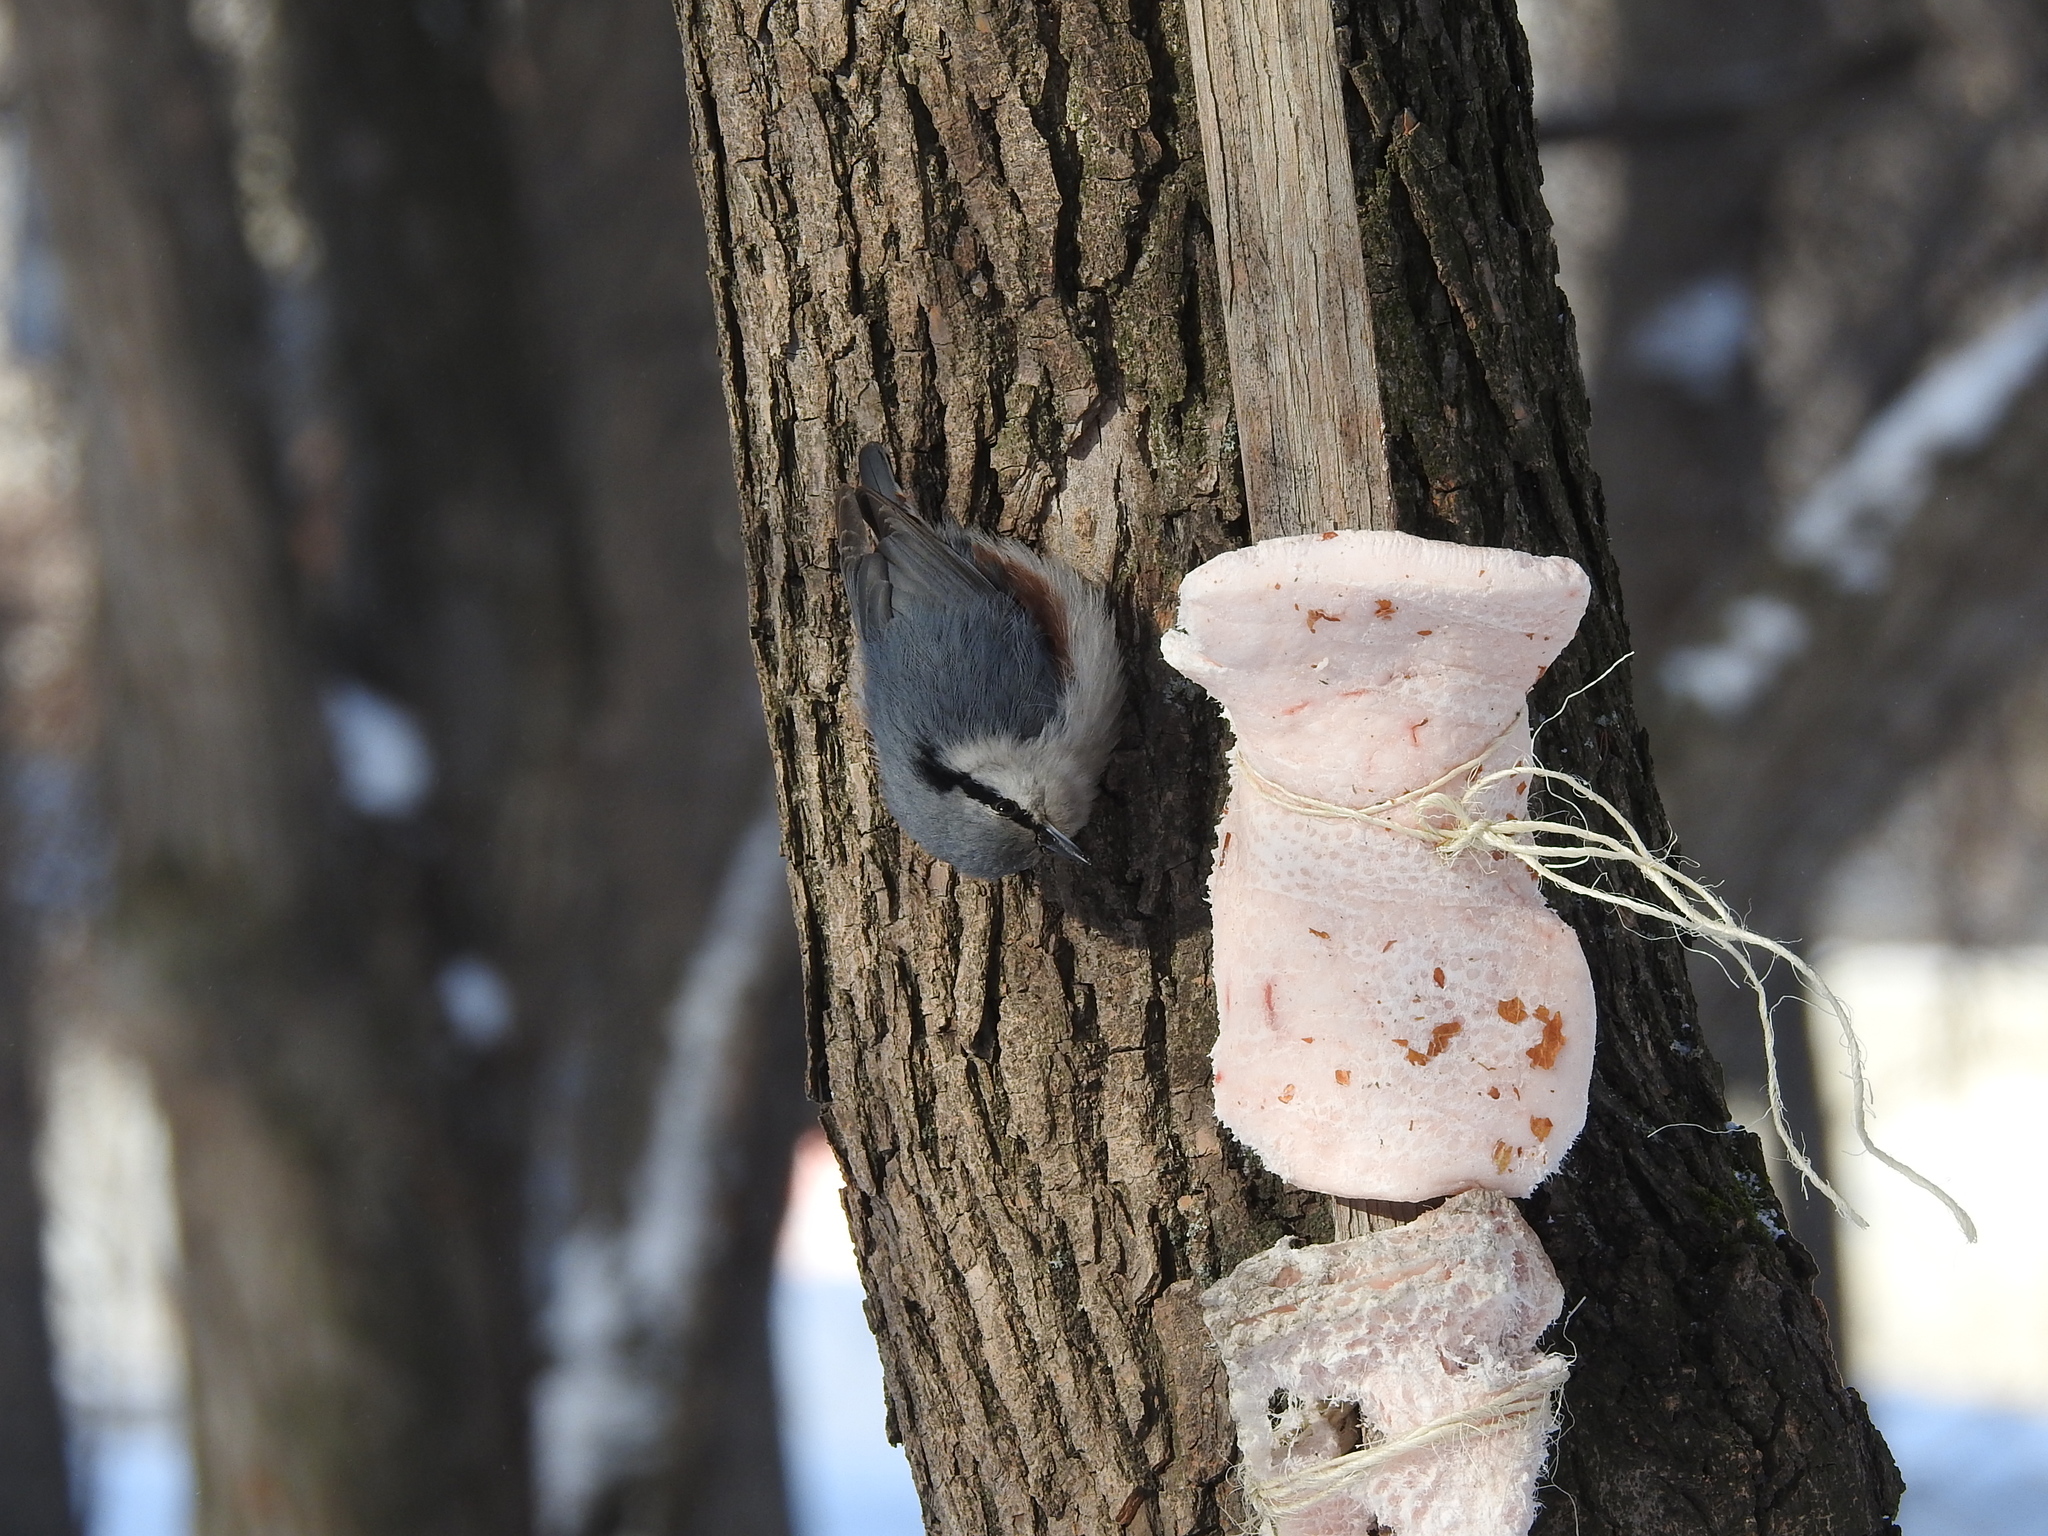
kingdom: Animalia
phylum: Chordata
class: Aves
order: Passeriformes
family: Sittidae
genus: Sitta
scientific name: Sitta europaea
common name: Eurasian nuthatch
